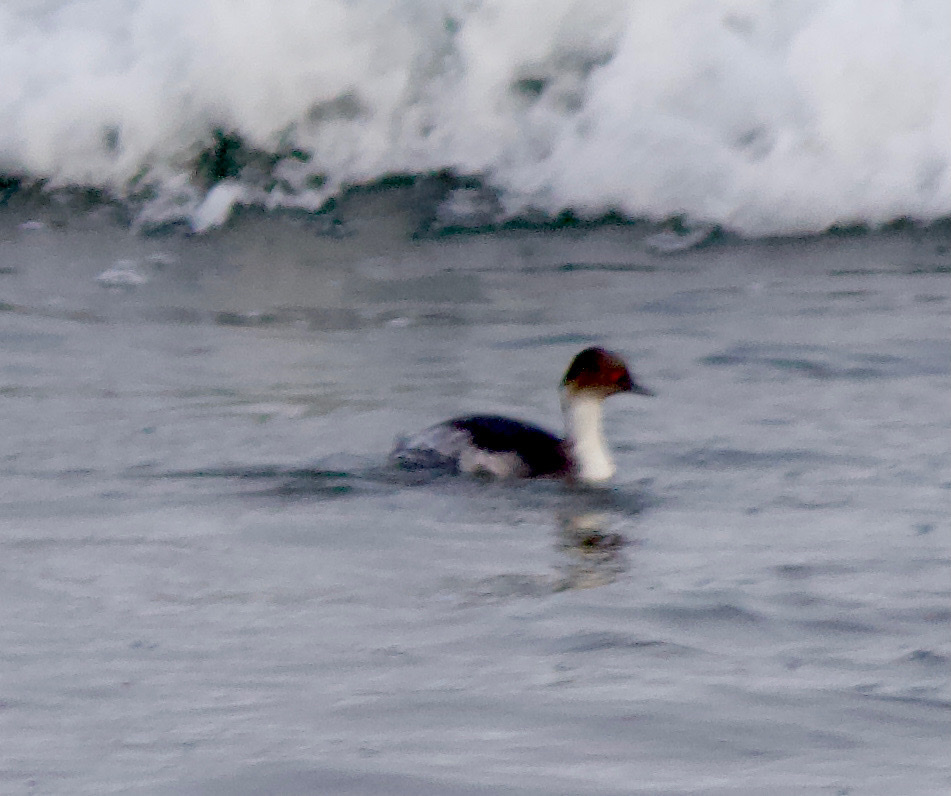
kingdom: Animalia
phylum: Chordata
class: Aves
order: Podicipediformes
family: Podicipedidae
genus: Podiceps
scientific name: Podiceps occipitalis
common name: Silvery grebe
